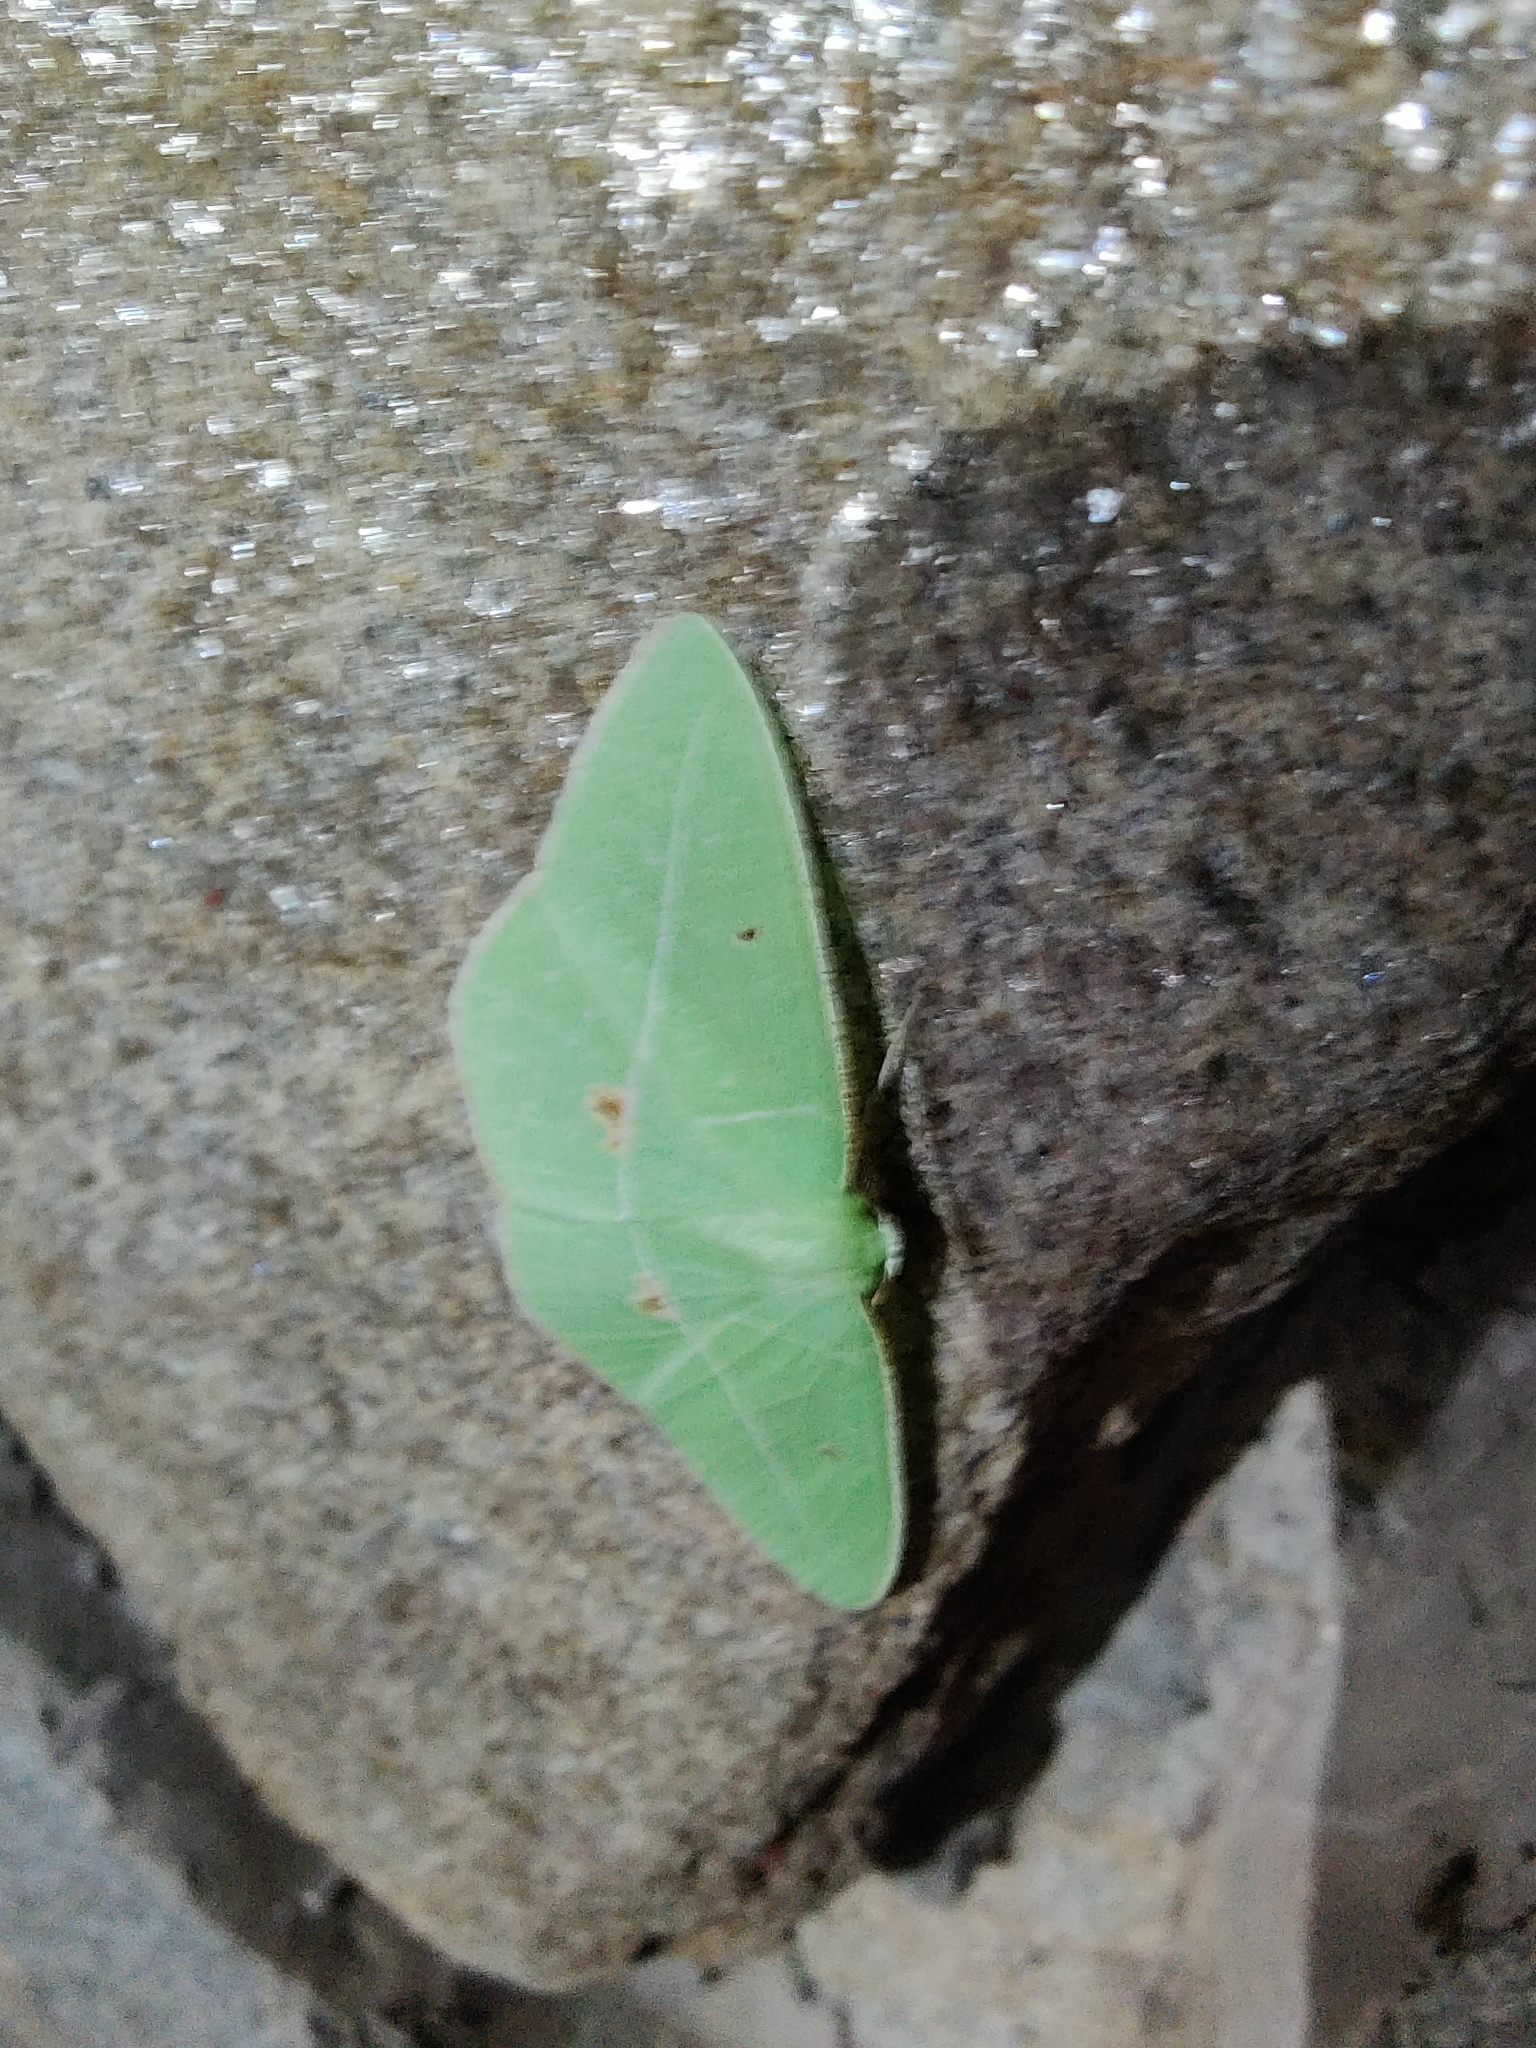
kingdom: Animalia
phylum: Arthropoda
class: Insecta
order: Lepidoptera
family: Geometridae
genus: Tanaoctenia
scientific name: Tanaoctenia haliaria
